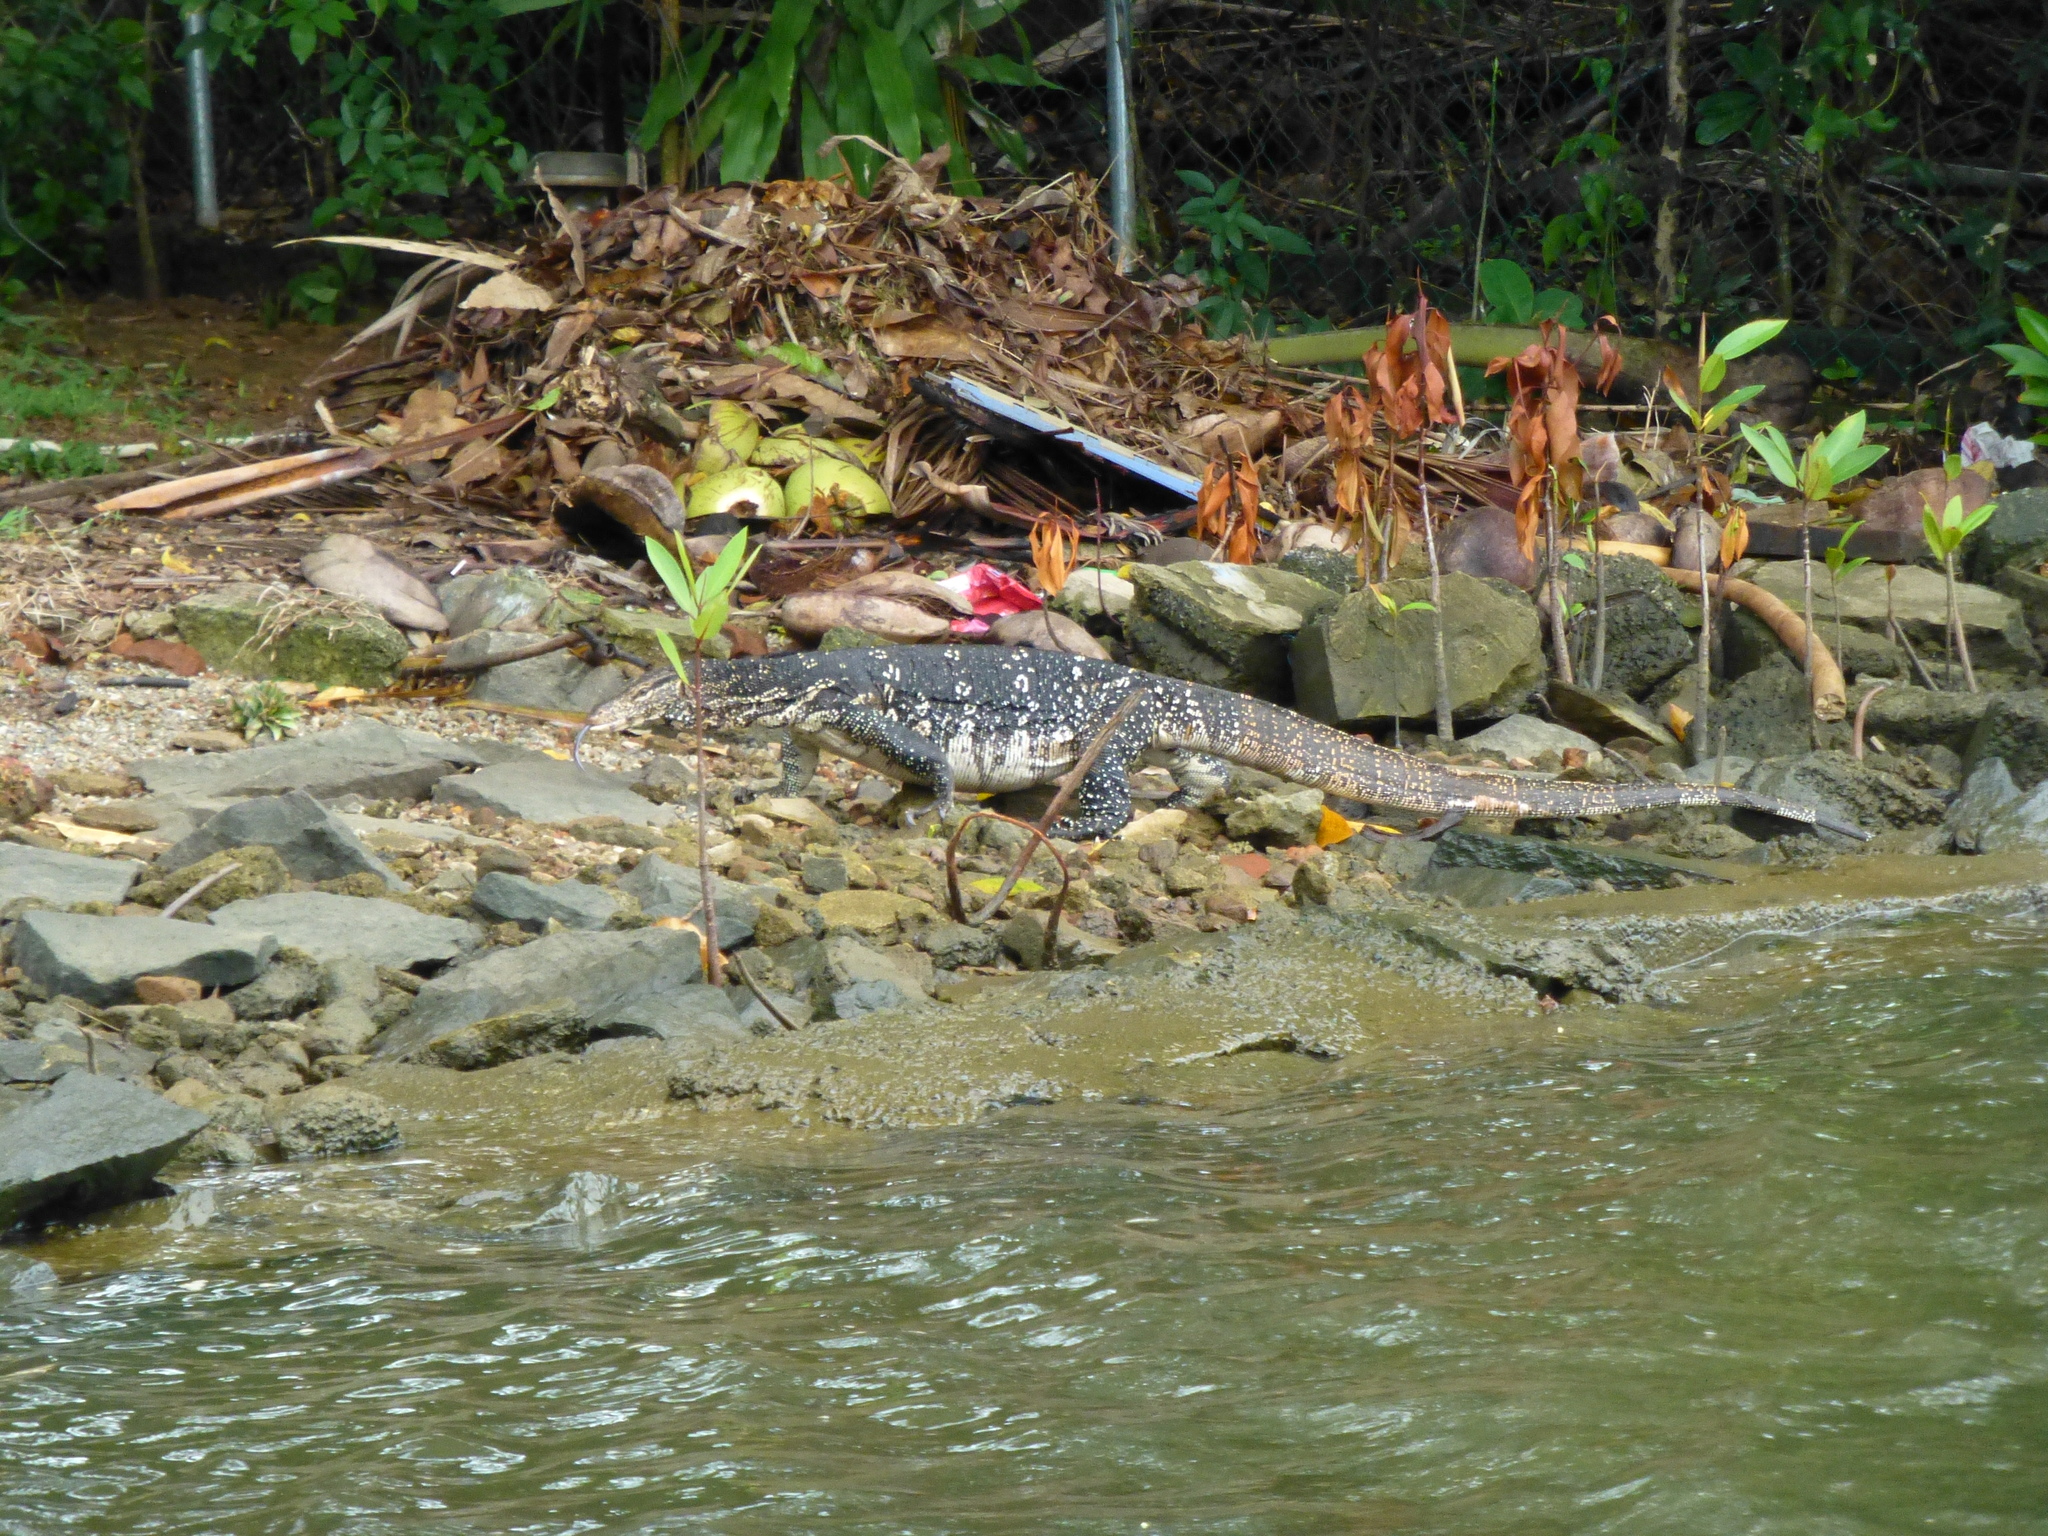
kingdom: Animalia
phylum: Chordata
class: Squamata
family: Varanidae
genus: Varanus
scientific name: Varanus salvator
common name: Common water monitor
